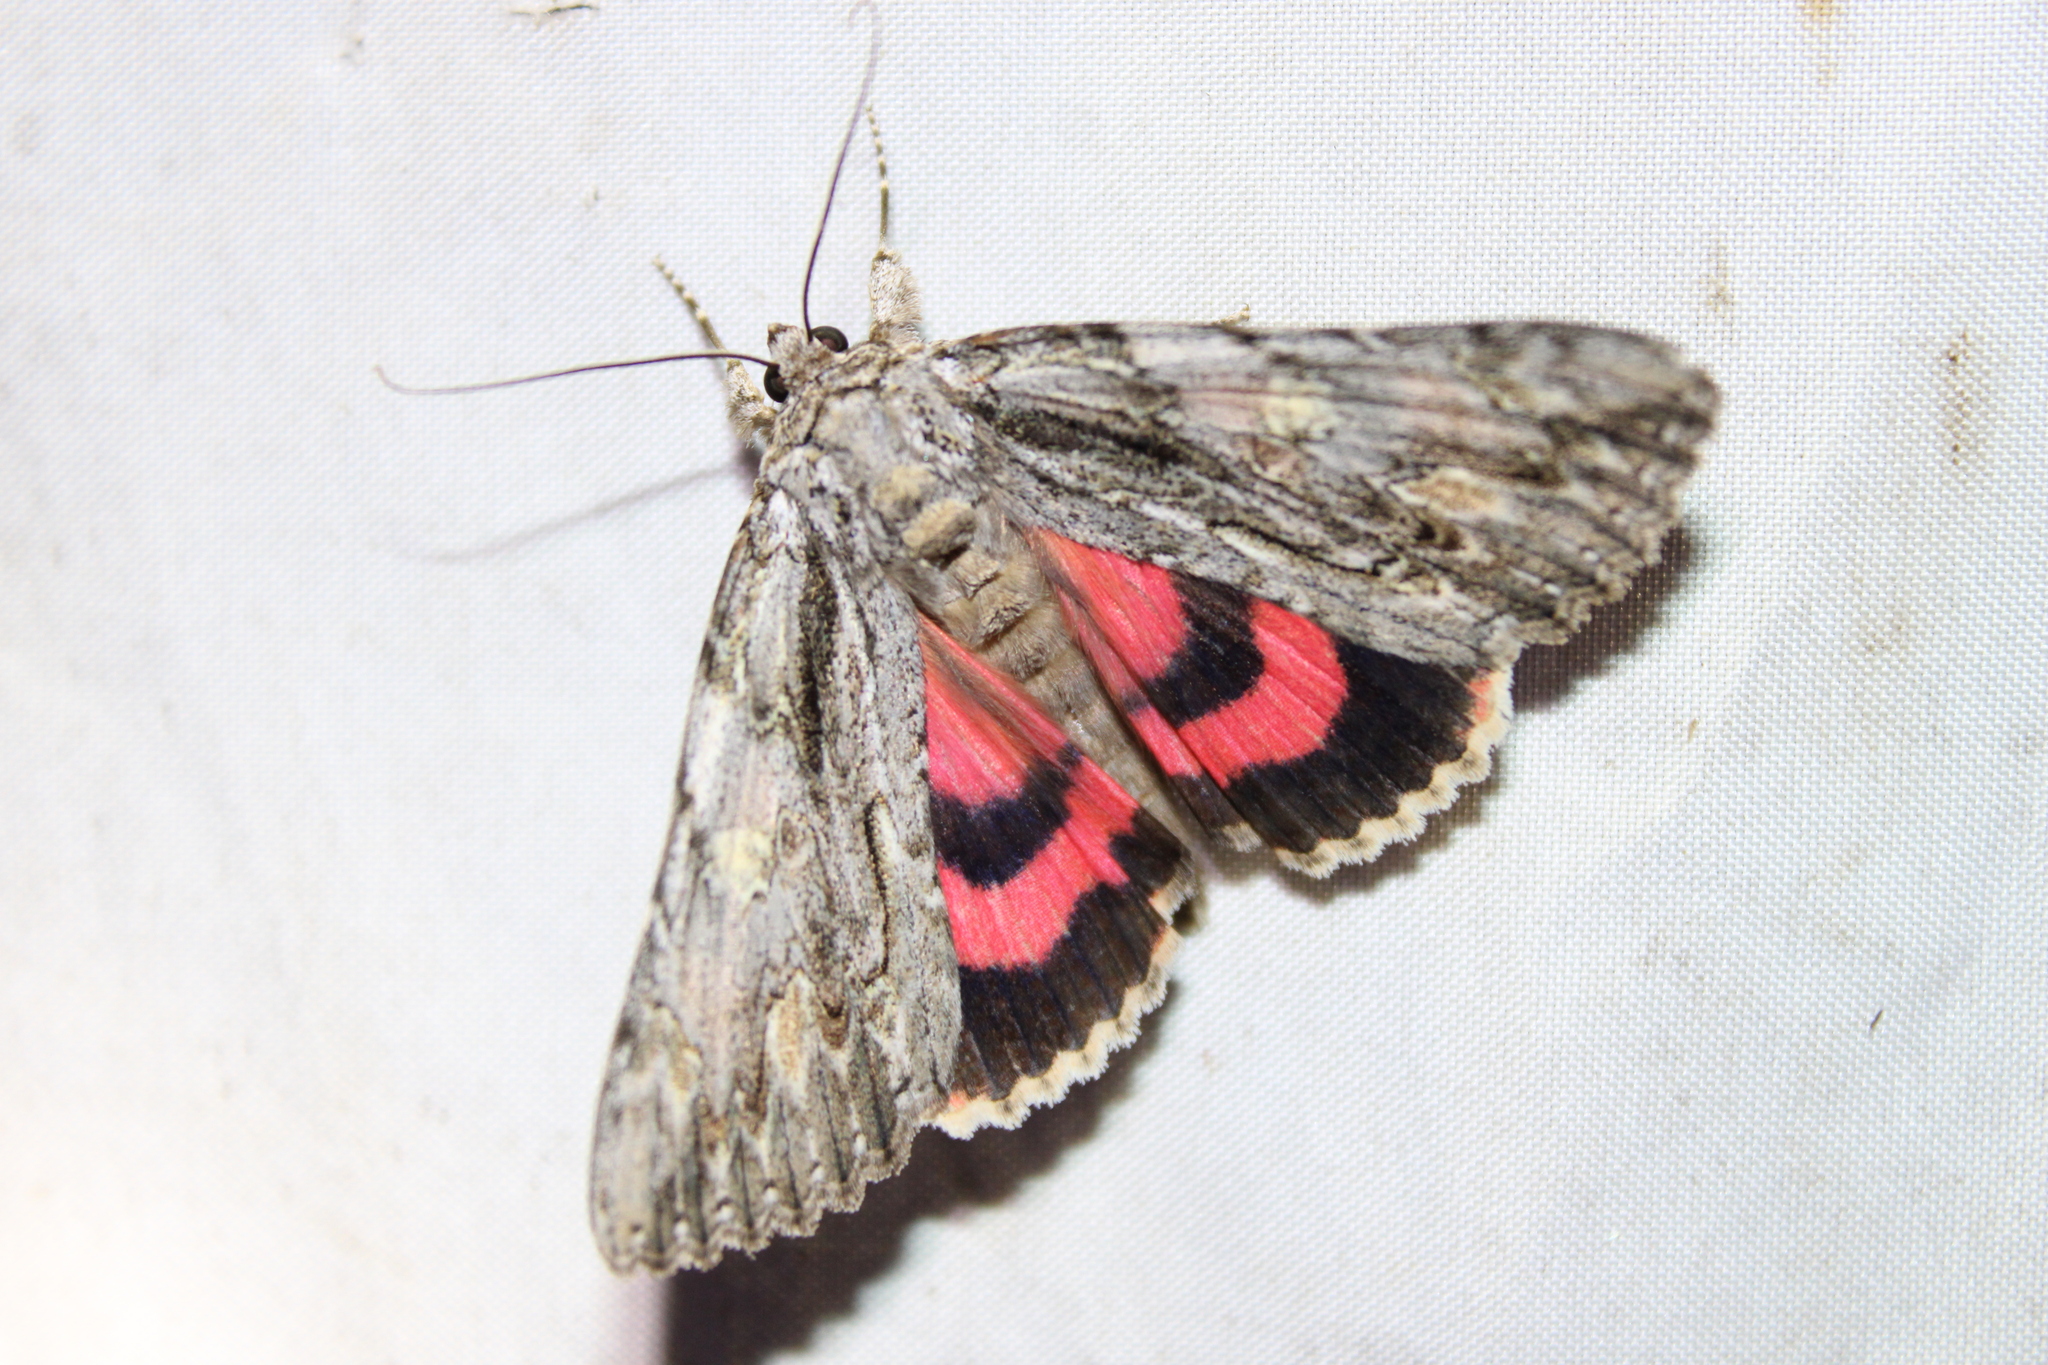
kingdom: Animalia
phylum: Arthropoda
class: Insecta
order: Lepidoptera
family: Erebidae
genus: Catocala
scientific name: Catocala coccinata
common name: Scarlet underwing
